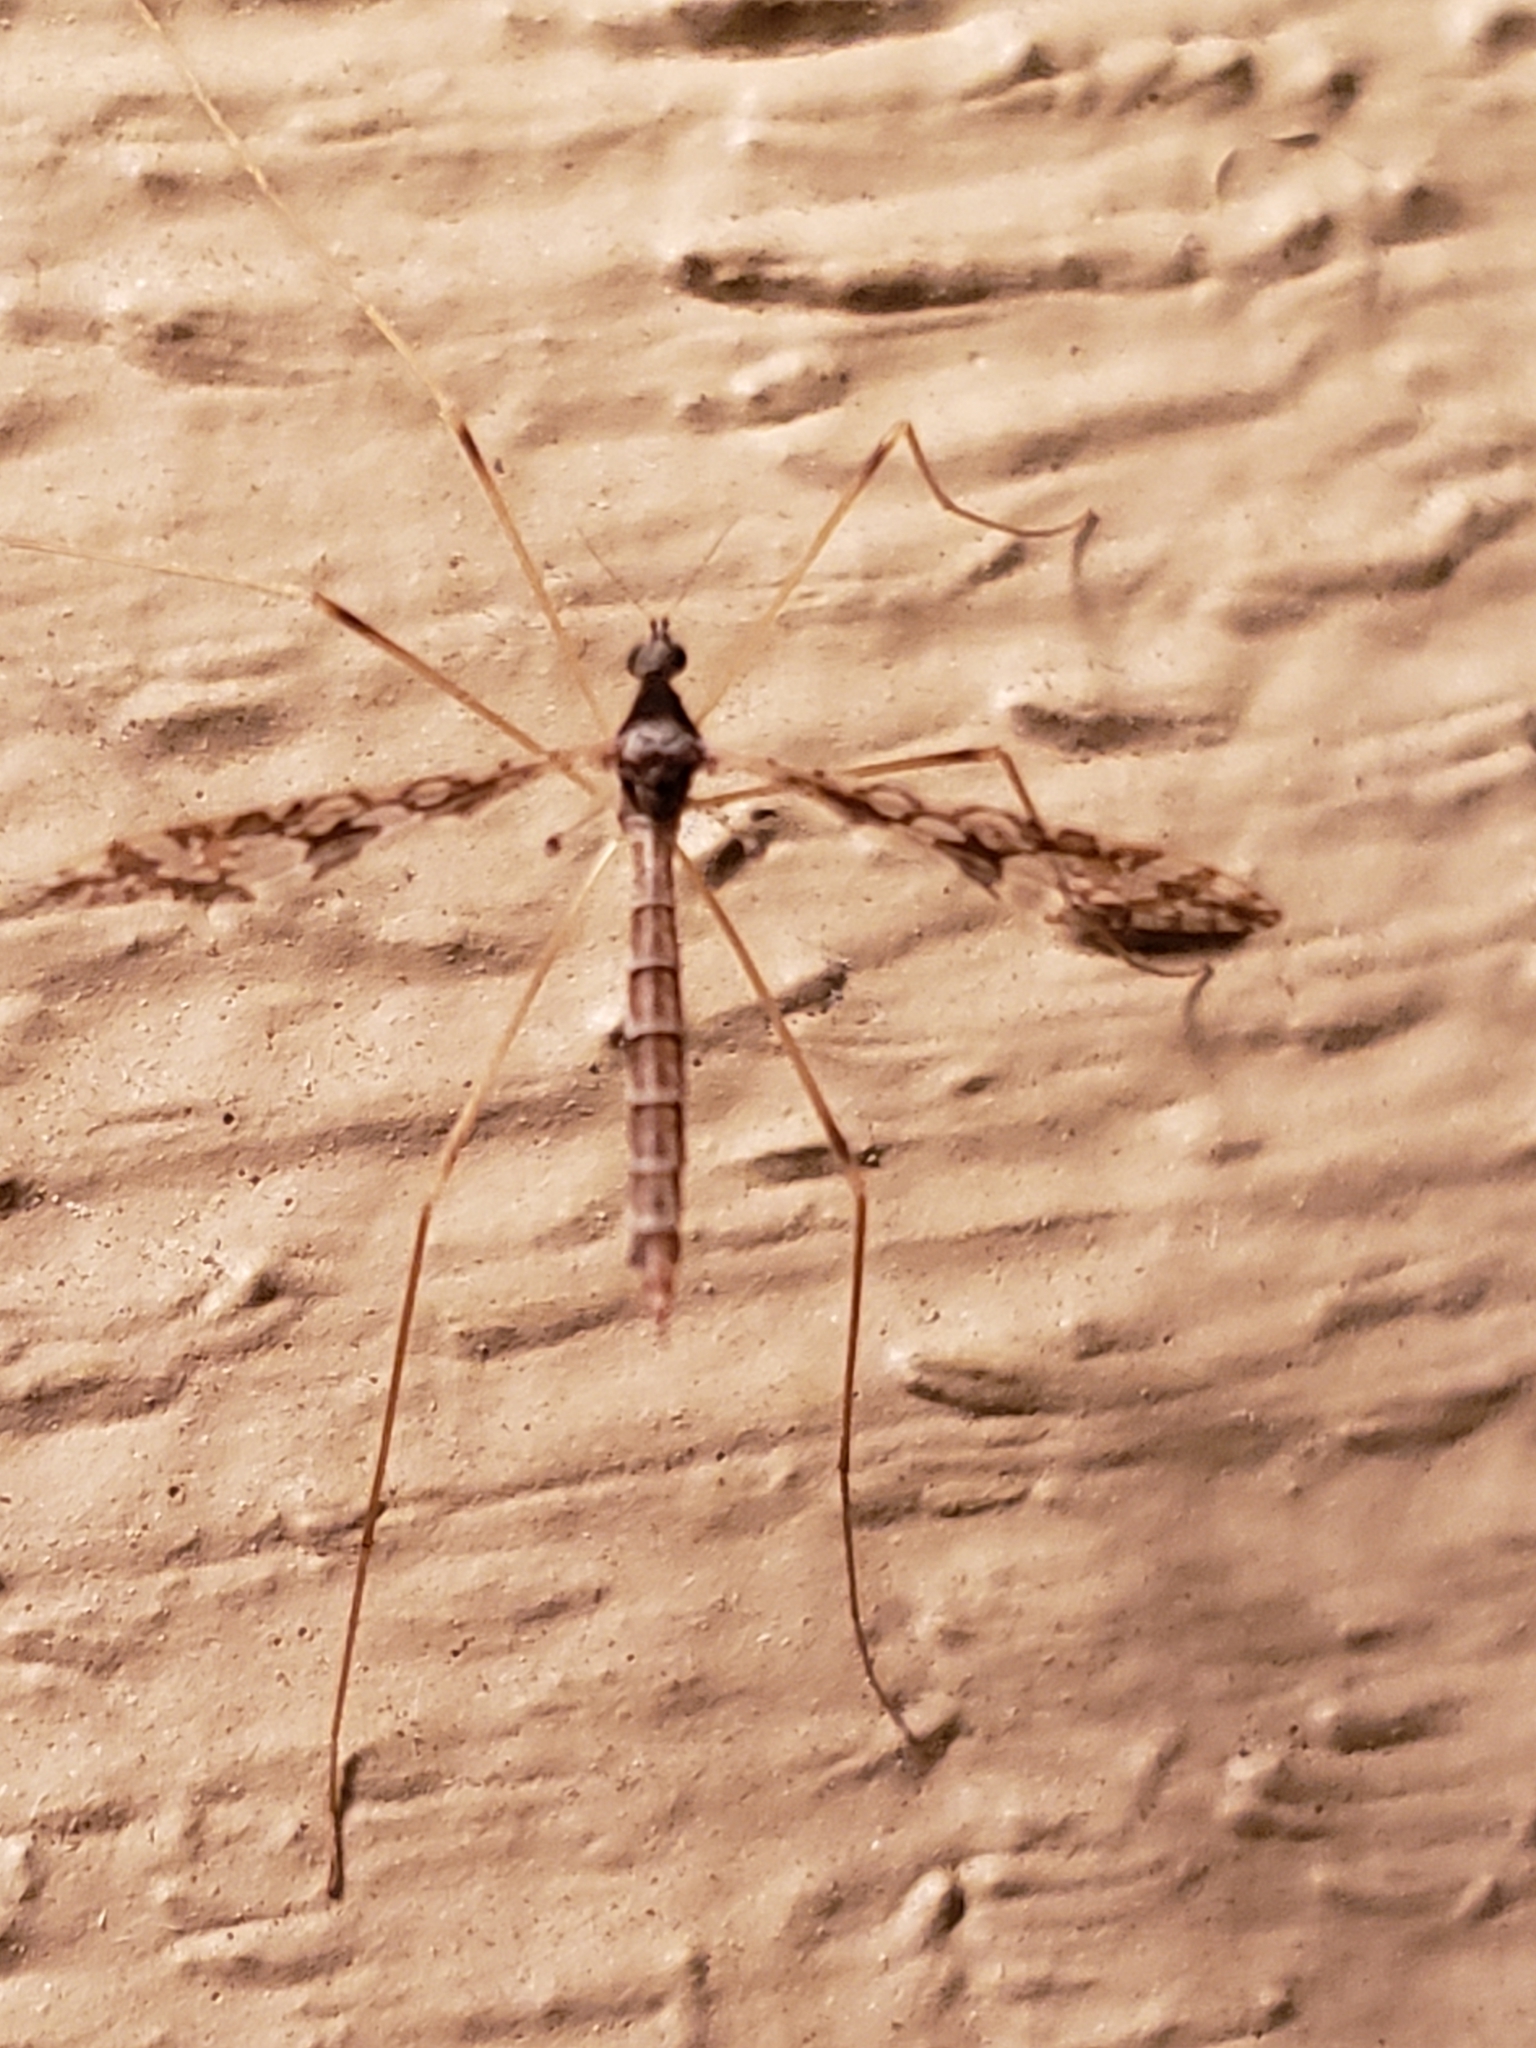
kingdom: Animalia
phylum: Arthropoda
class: Insecta
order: Diptera
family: Limoniidae
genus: Epiphragma
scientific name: Epiphragma solatrix
